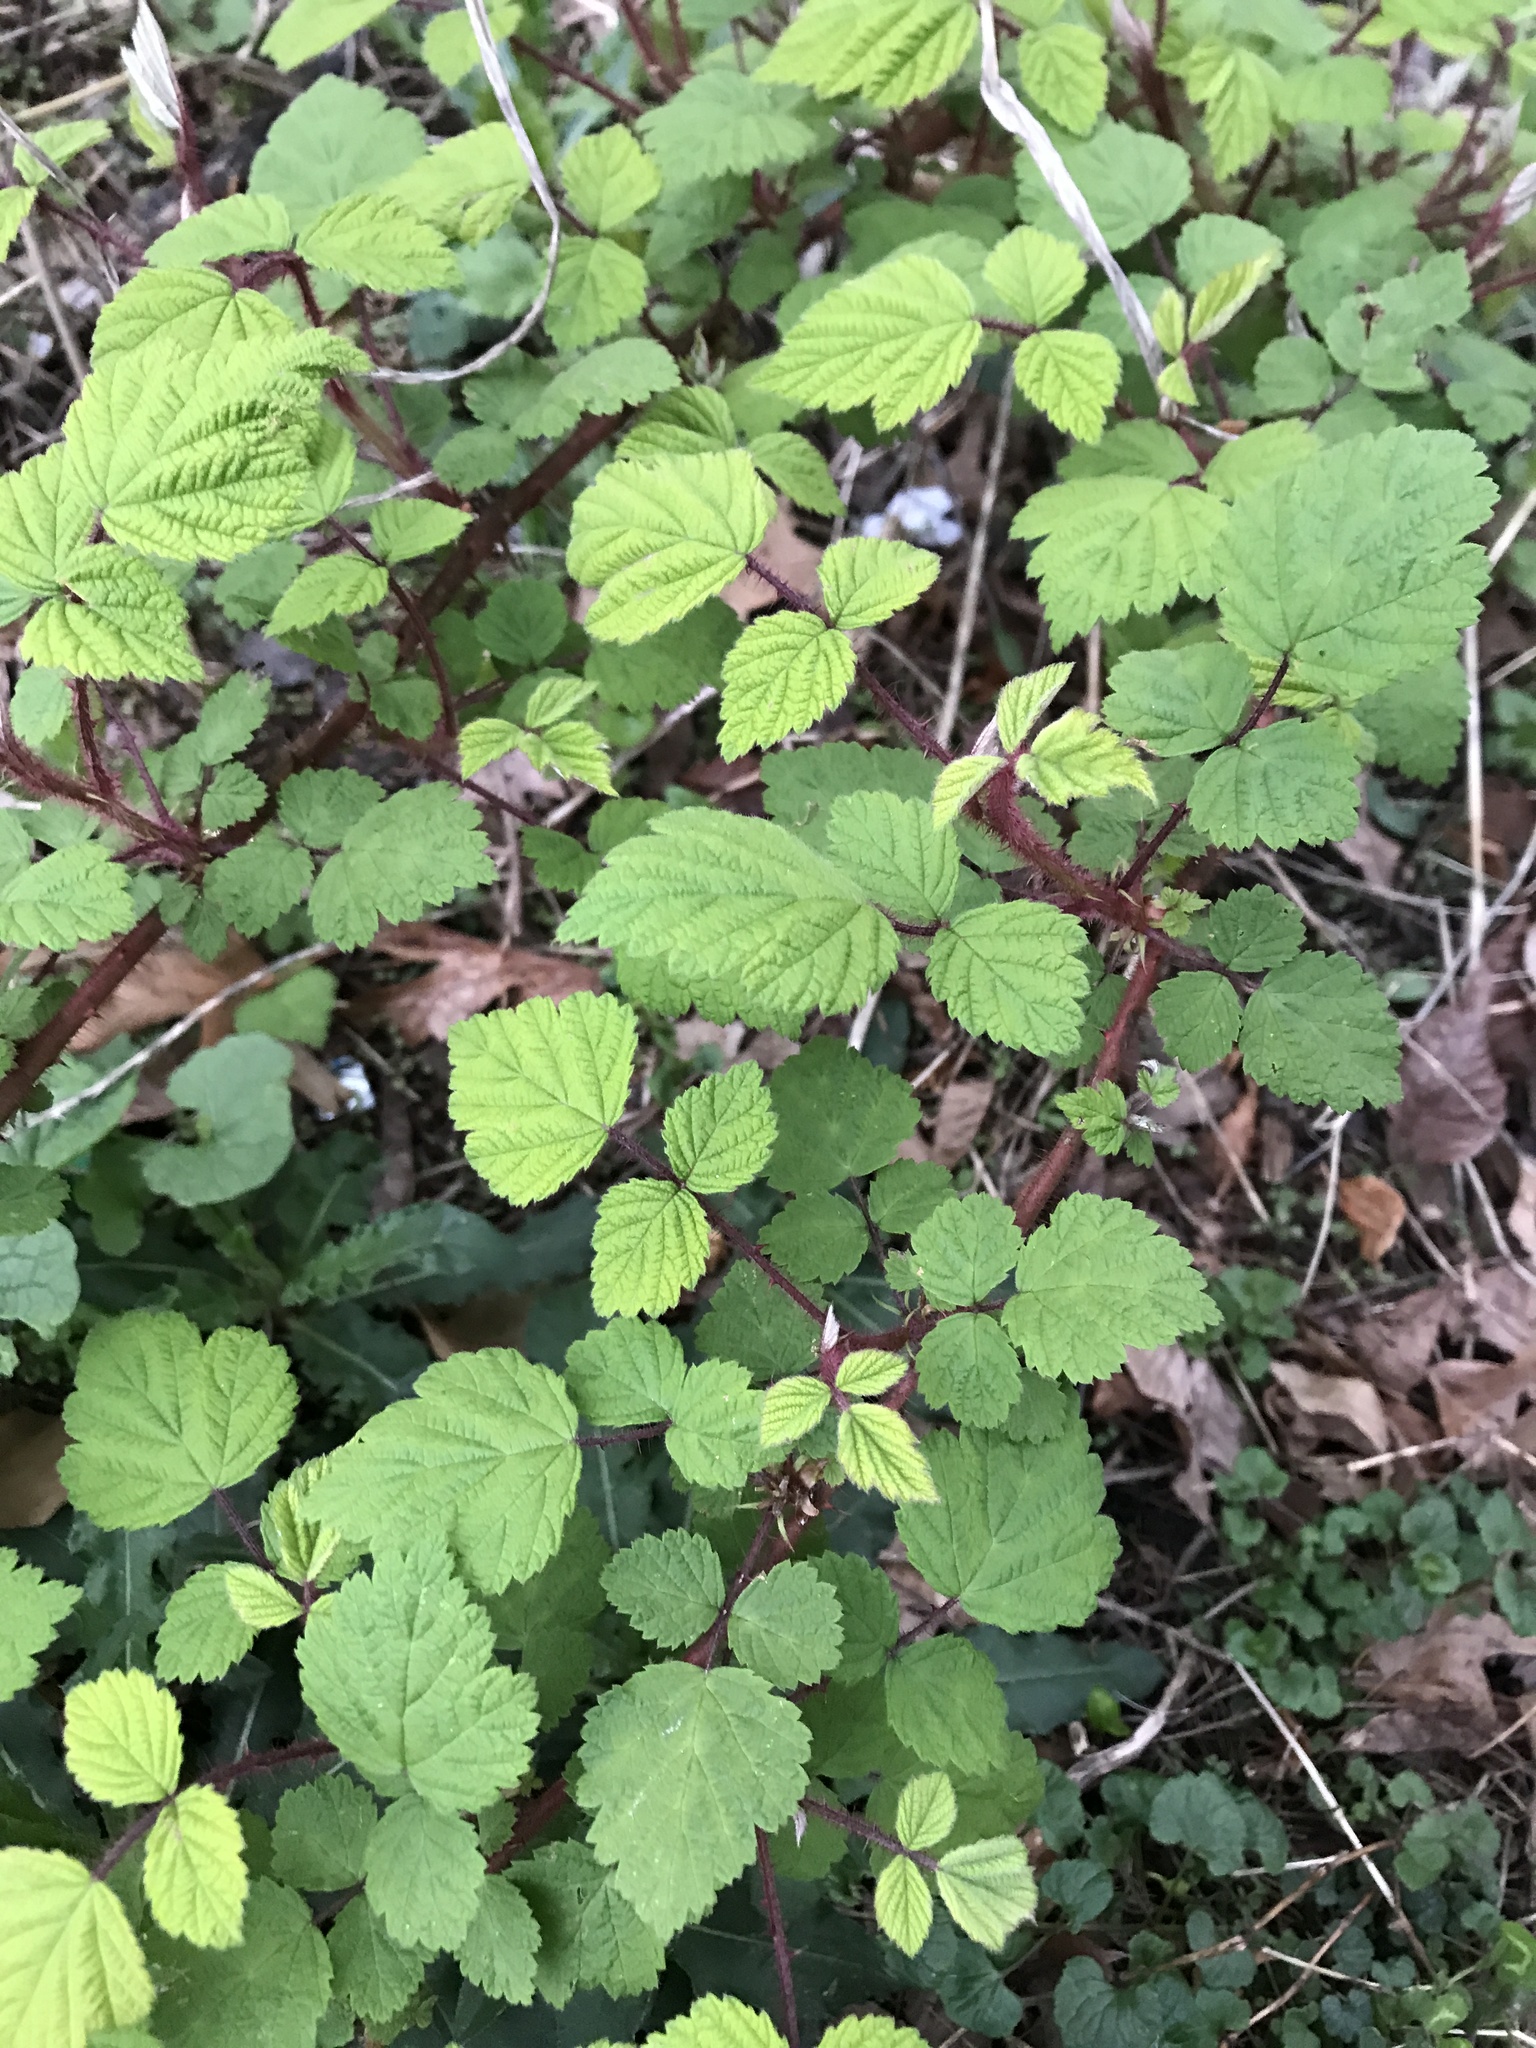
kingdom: Plantae
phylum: Tracheophyta
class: Magnoliopsida
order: Rosales
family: Rosaceae
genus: Rubus
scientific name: Rubus phoenicolasius
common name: Japanese wineberry
